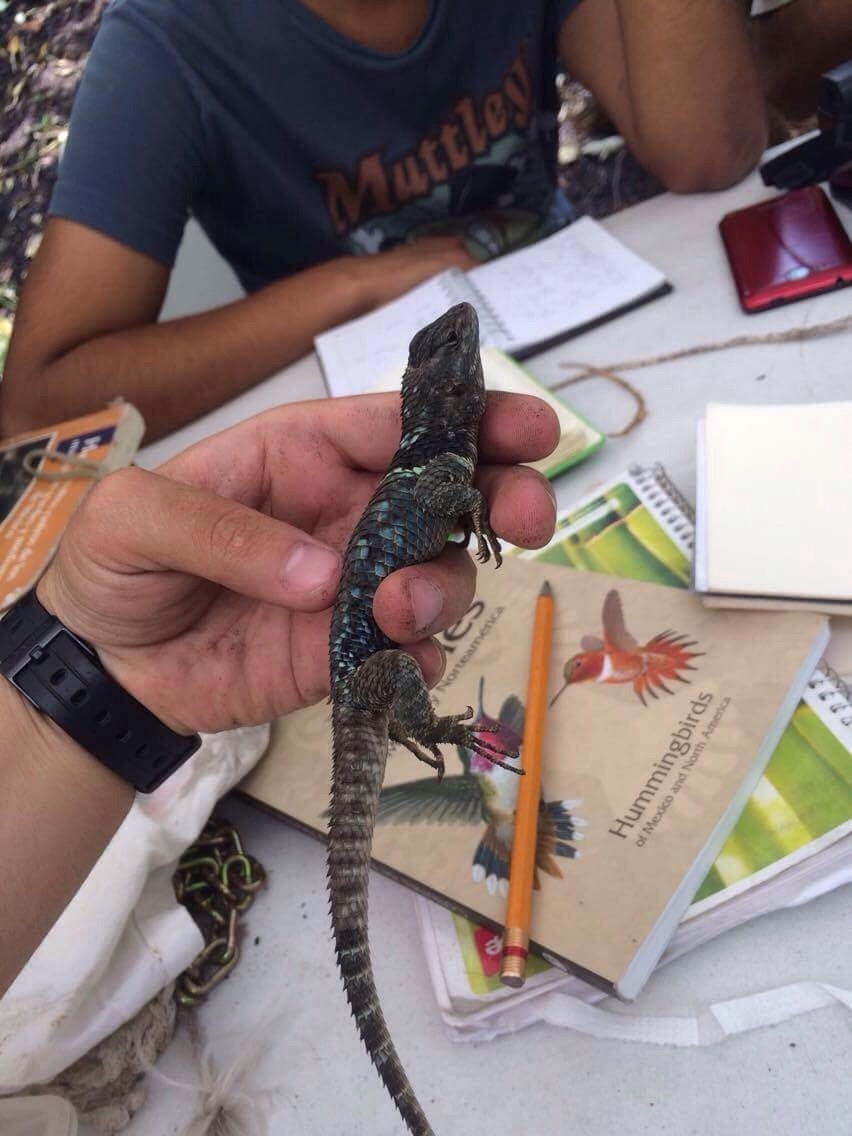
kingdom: Animalia
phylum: Chordata
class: Squamata
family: Phrynosomatidae
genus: Sceloporus
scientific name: Sceloporus torquatus
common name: Central plateau torquate lizard [melanogaster]
